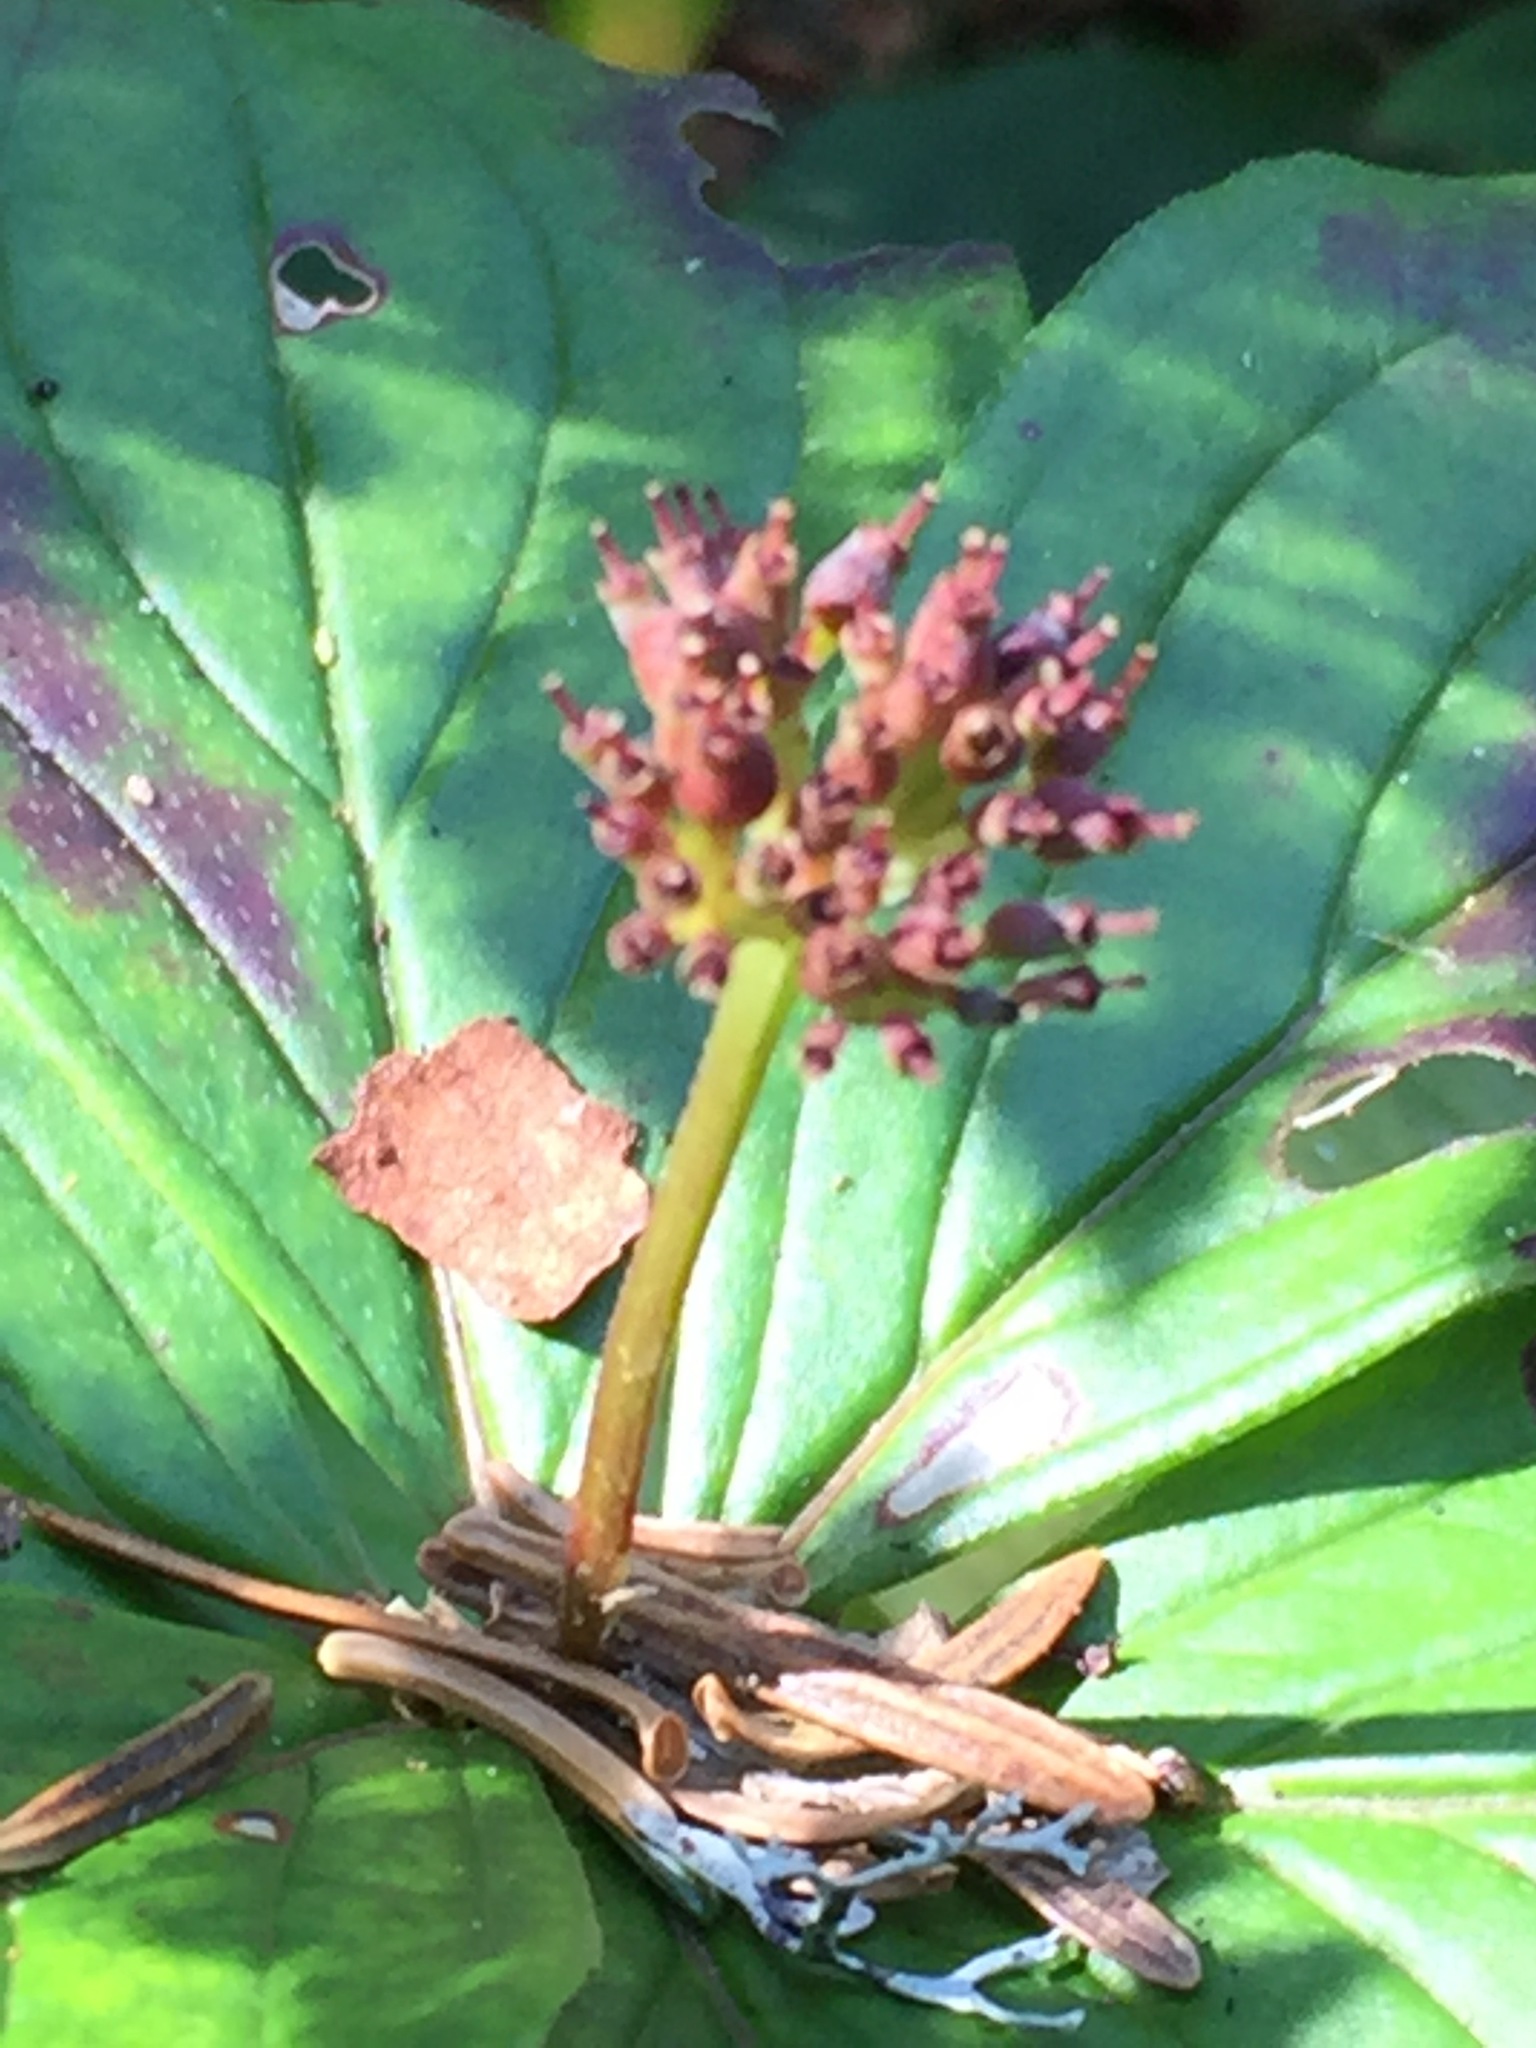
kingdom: Plantae
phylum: Tracheophyta
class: Magnoliopsida
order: Cornales
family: Cornaceae
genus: Cornus
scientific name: Cornus canadensis
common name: Creeping dogwood
